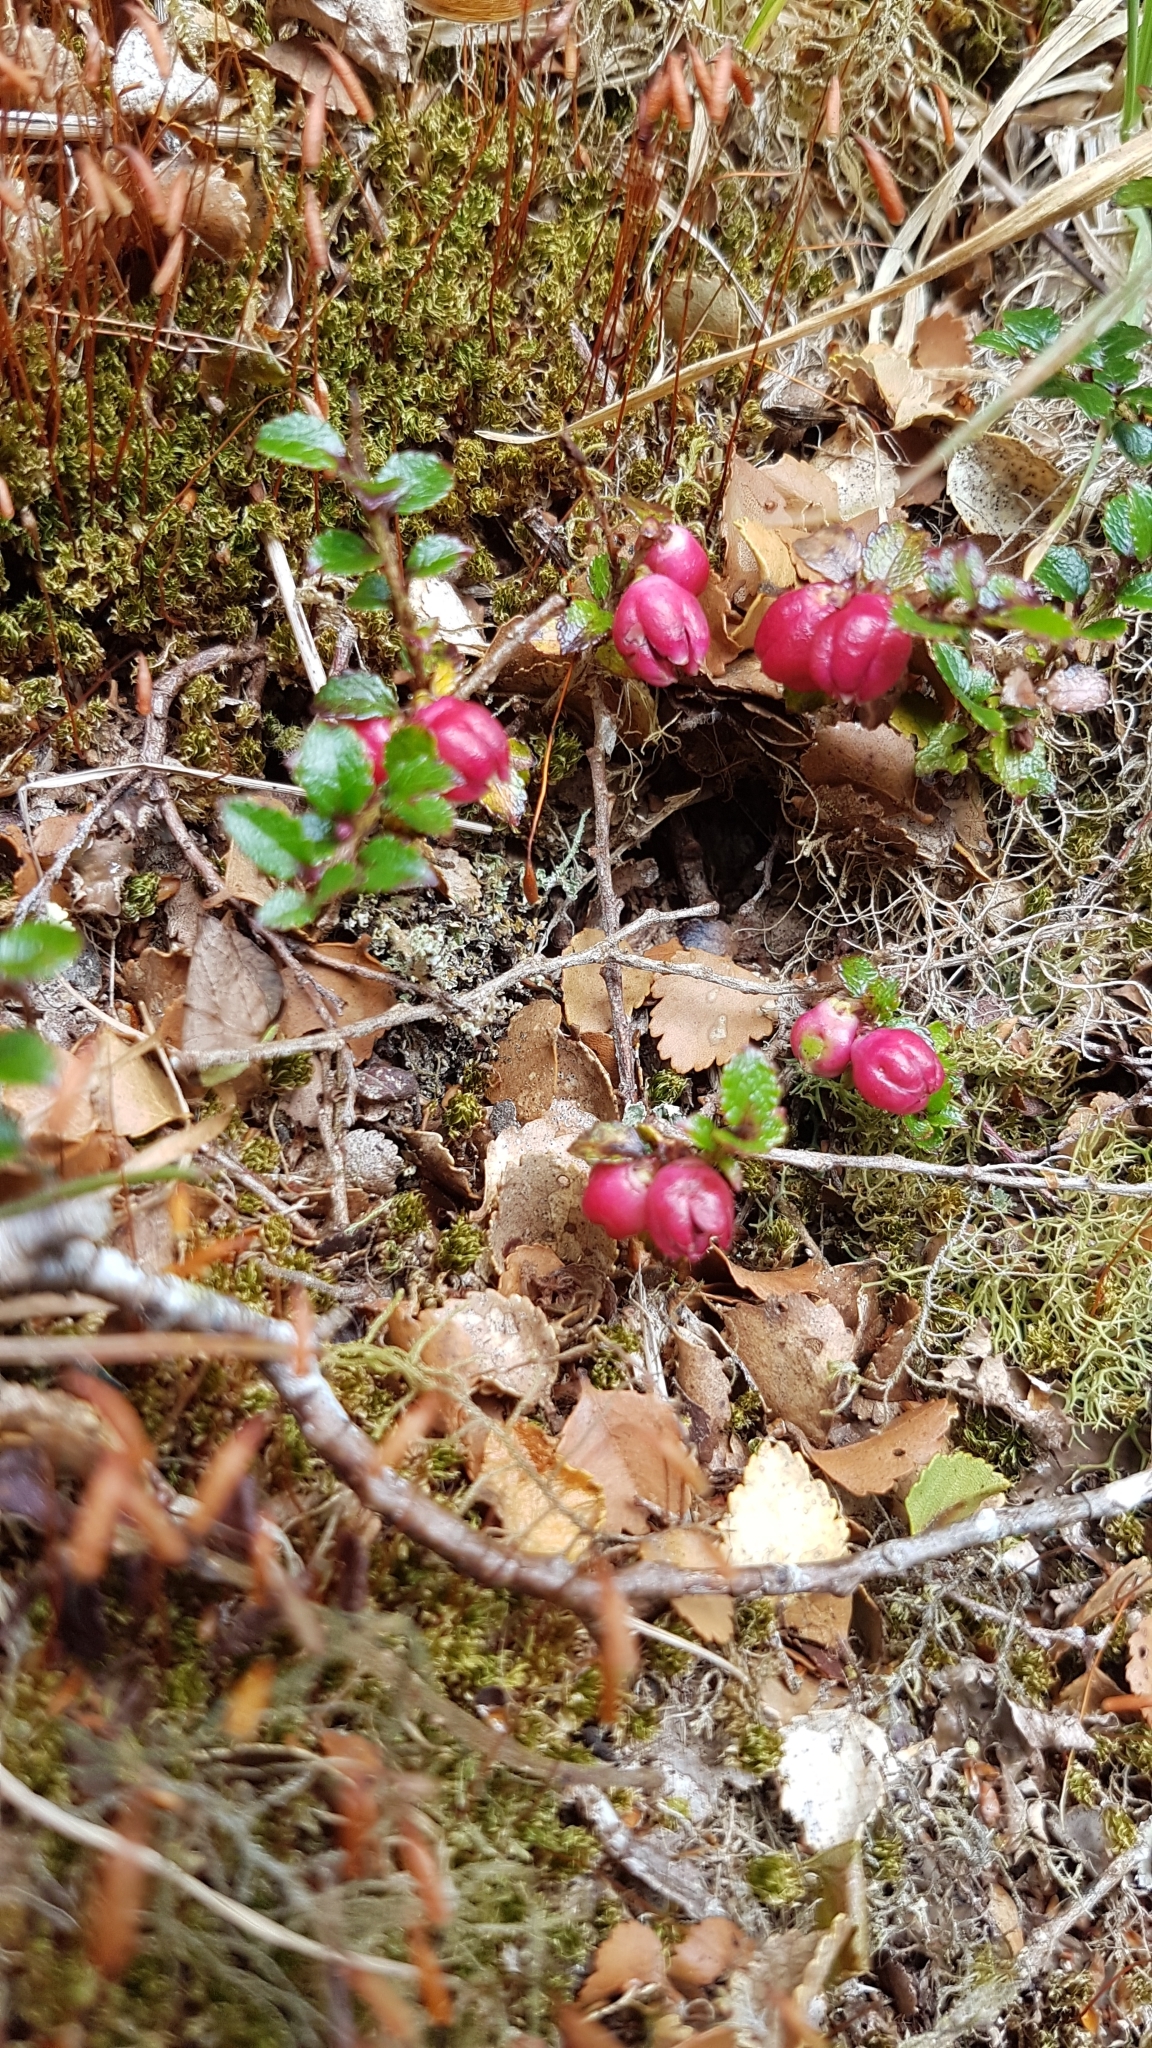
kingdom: Plantae
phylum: Tracheophyta
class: Magnoliopsida
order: Ericales
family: Ericaceae
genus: Gaultheria
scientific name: Gaultheria depressa
